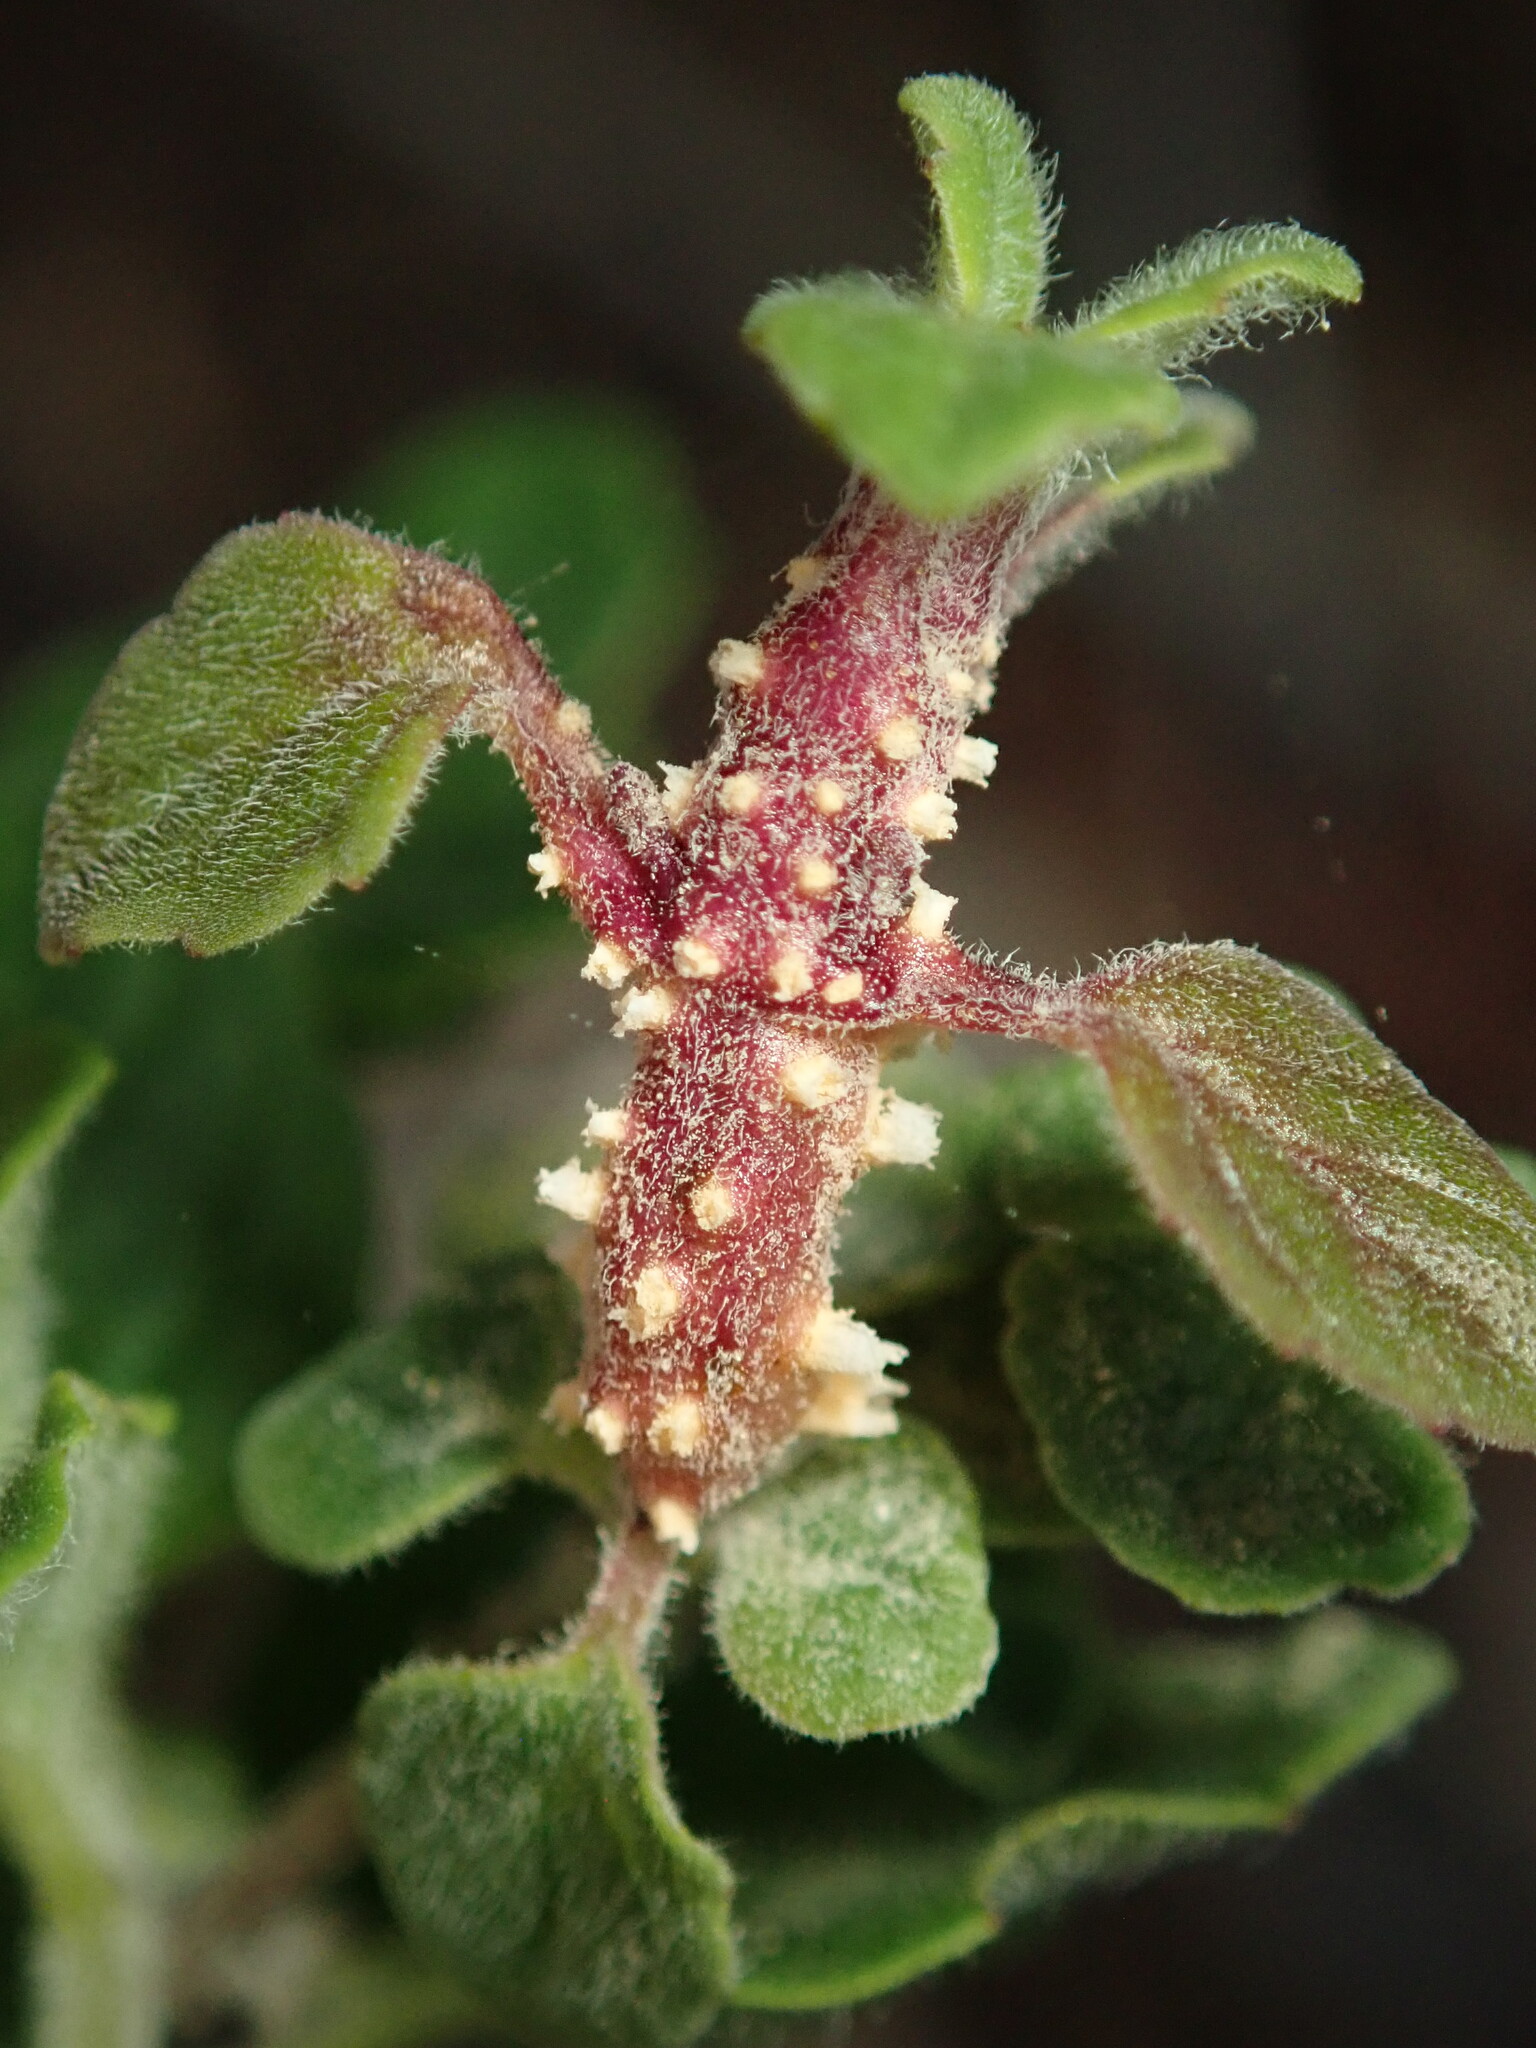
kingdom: Fungi
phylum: Basidiomycota
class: Pucciniomycetes
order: Pucciniales
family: Pucciniaceae
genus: Puccinia
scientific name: Puccinia menthae
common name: Mint rust
